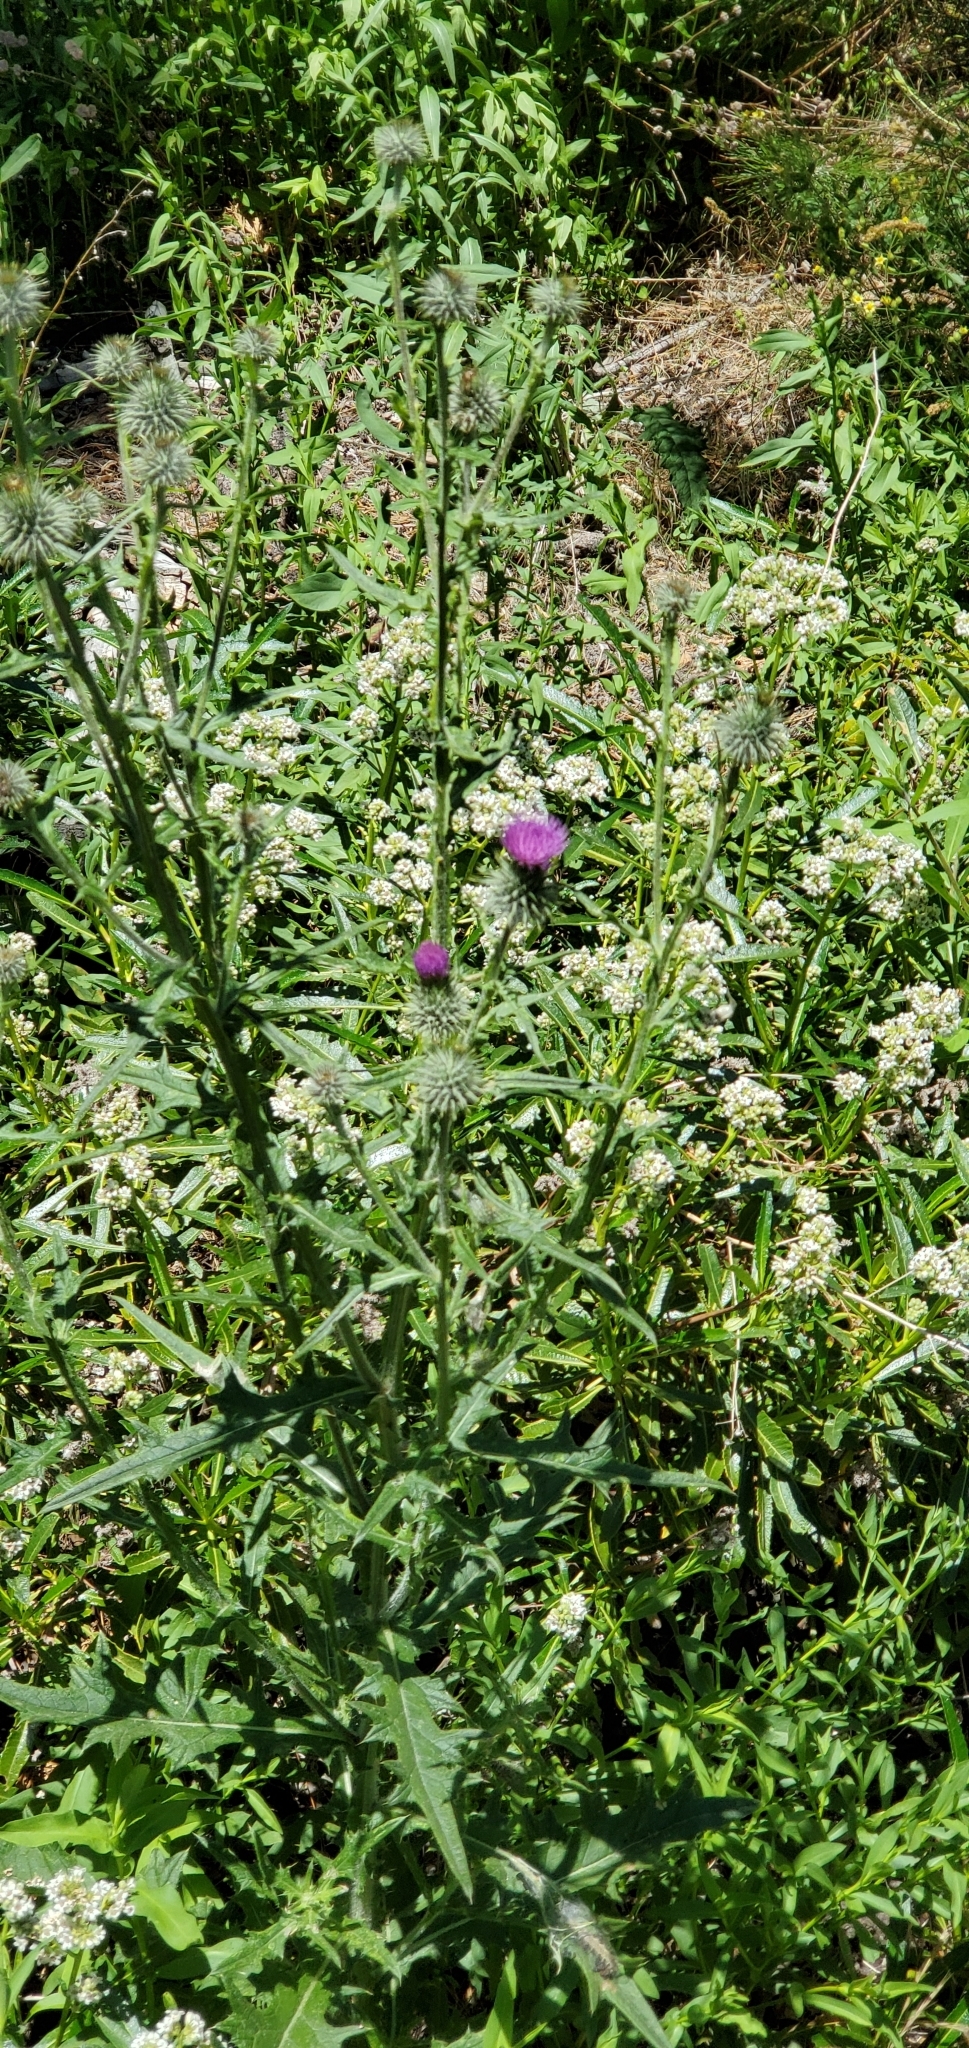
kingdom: Plantae
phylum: Tracheophyta
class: Magnoliopsida
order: Asterales
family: Asteraceae
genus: Cirsium
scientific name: Cirsium vulgare
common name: Bull thistle
